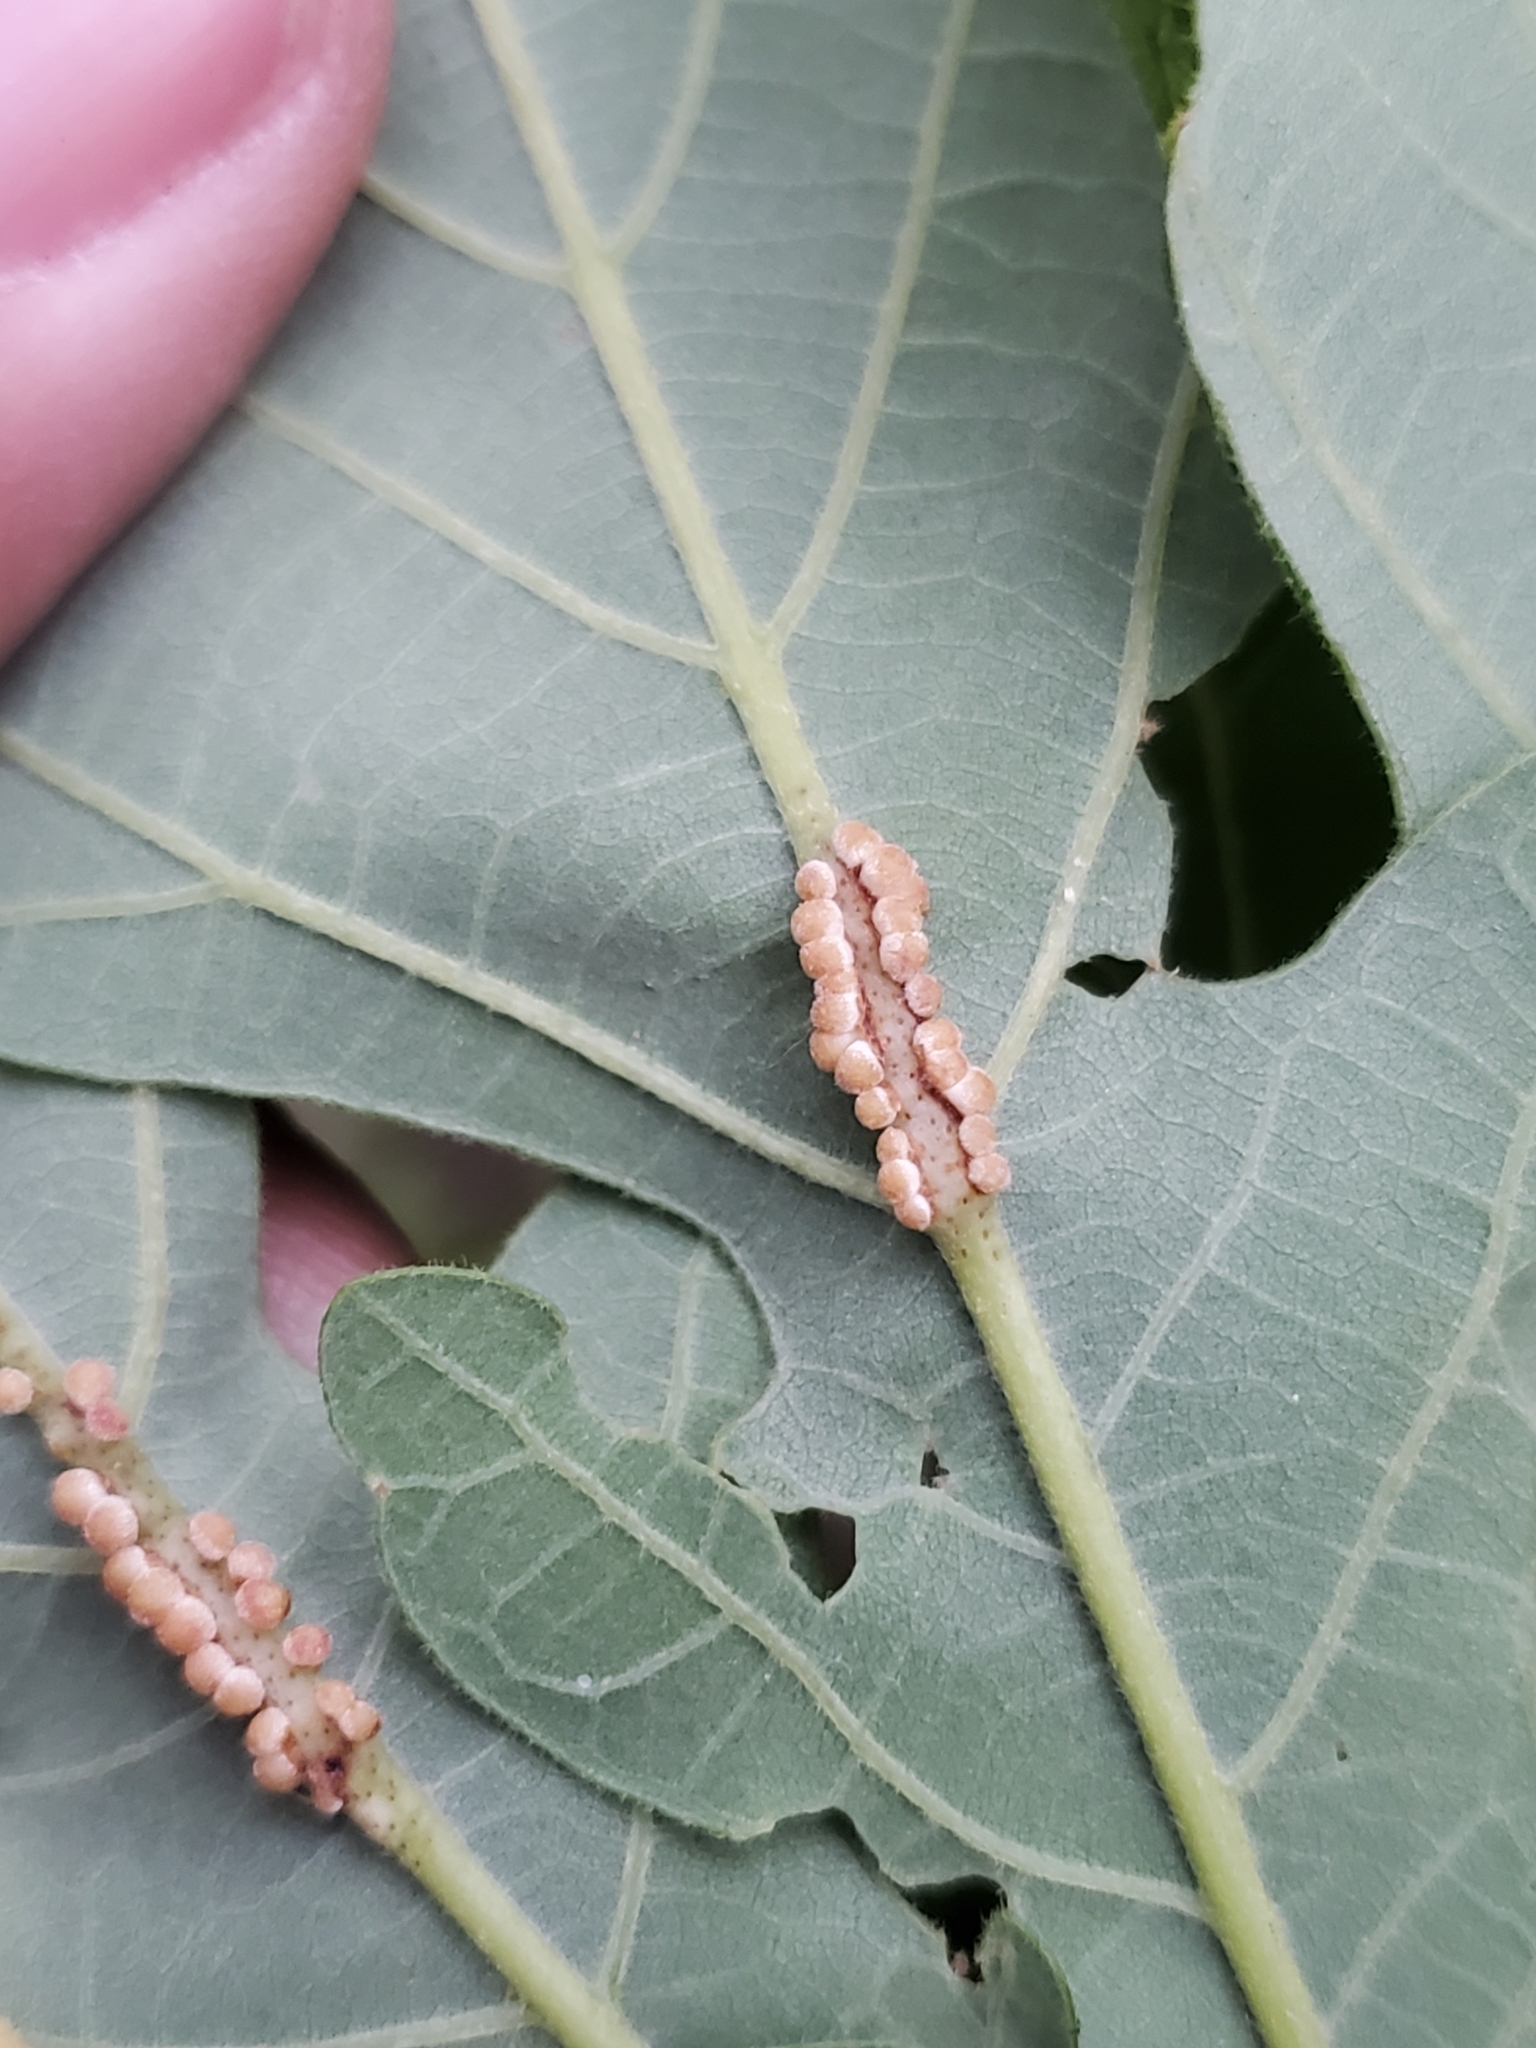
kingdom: Animalia
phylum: Arthropoda
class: Insecta
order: Hymenoptera
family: Cynipidae
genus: Andricus
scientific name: Andricus
